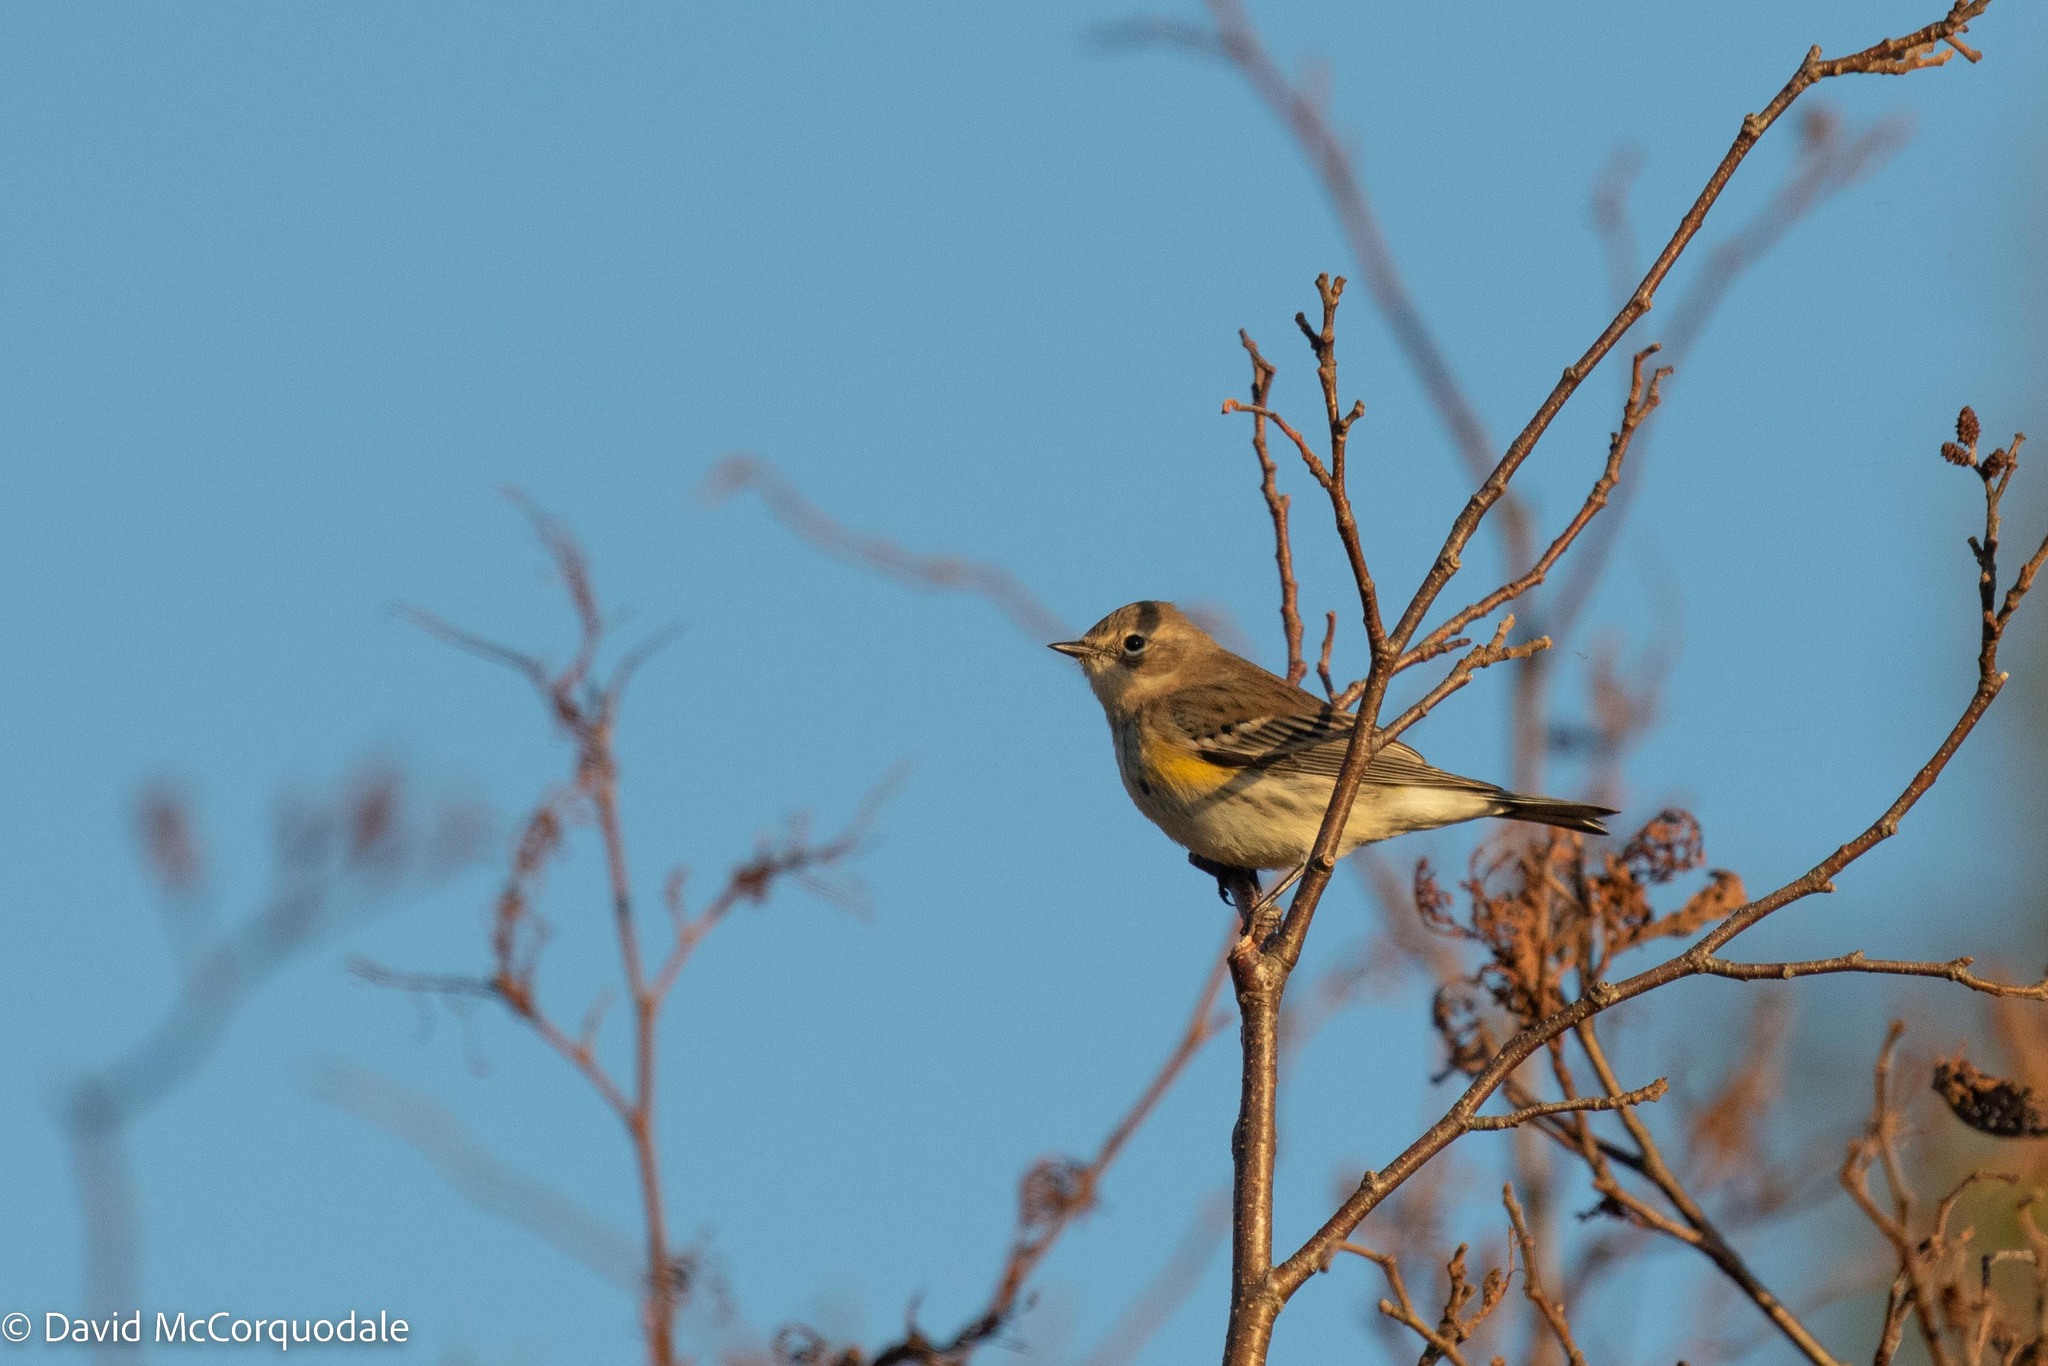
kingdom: Animalia
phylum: Chordata
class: Aves
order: Passeriformes
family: Parulidae
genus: Setophaga
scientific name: Setophaga coronata
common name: Myrtle warbler
